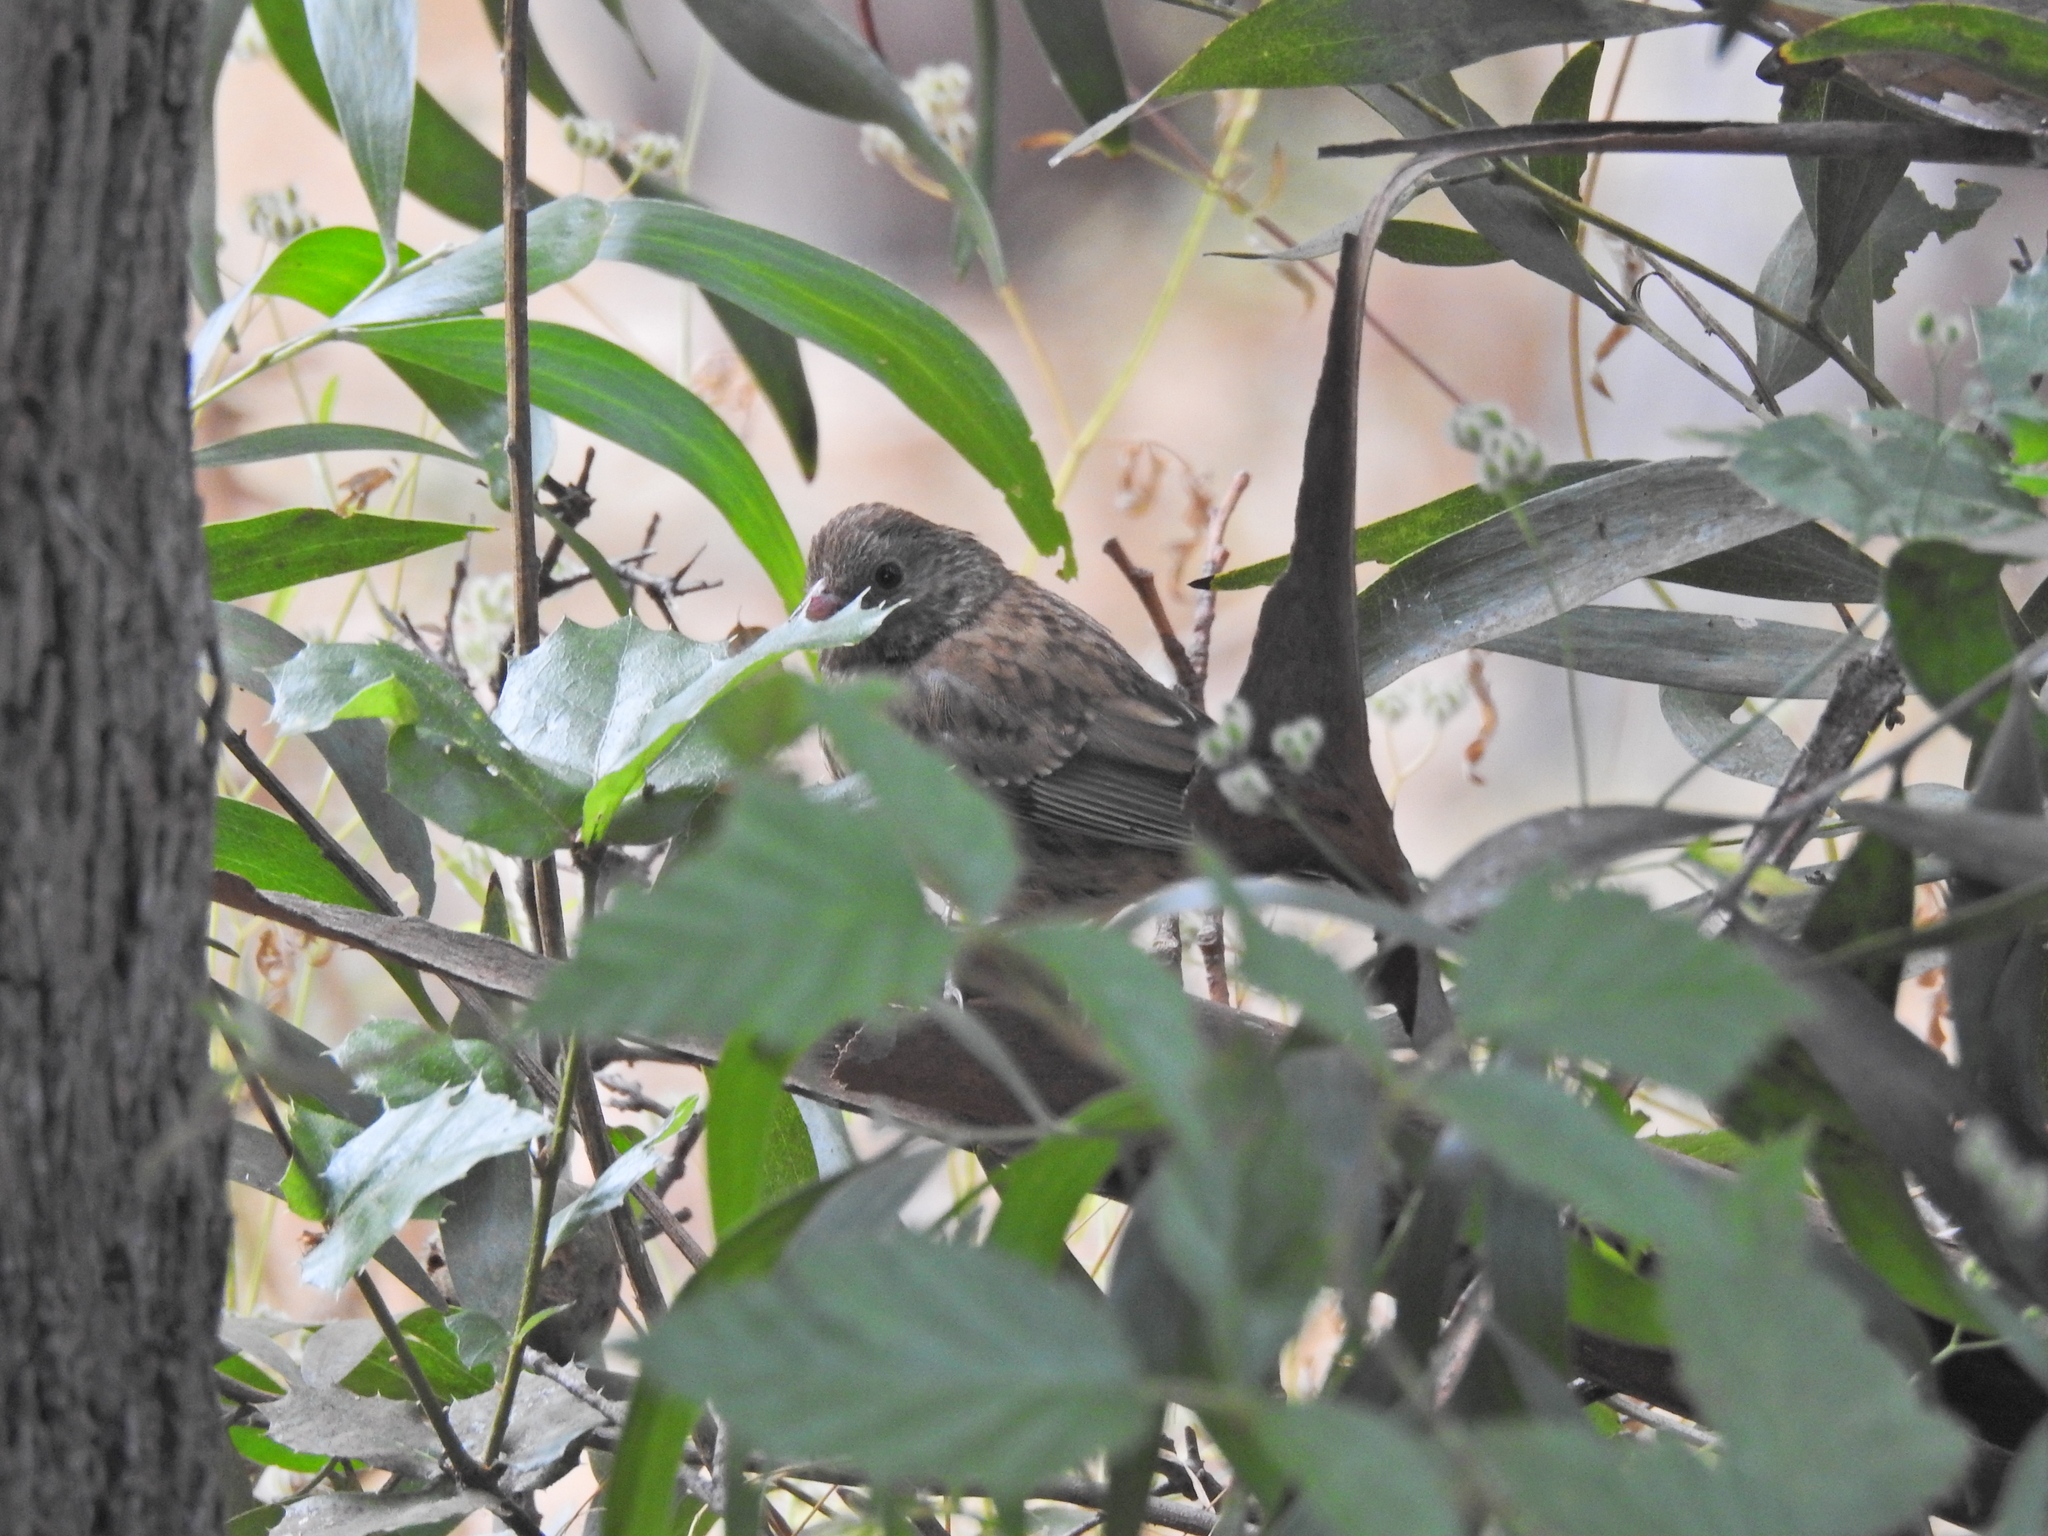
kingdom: Animalia
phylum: Chordata
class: Aves
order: Passeriformes
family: Passerellidae
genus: Junco
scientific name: Junco hyemalis
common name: Dark-eyed junco
